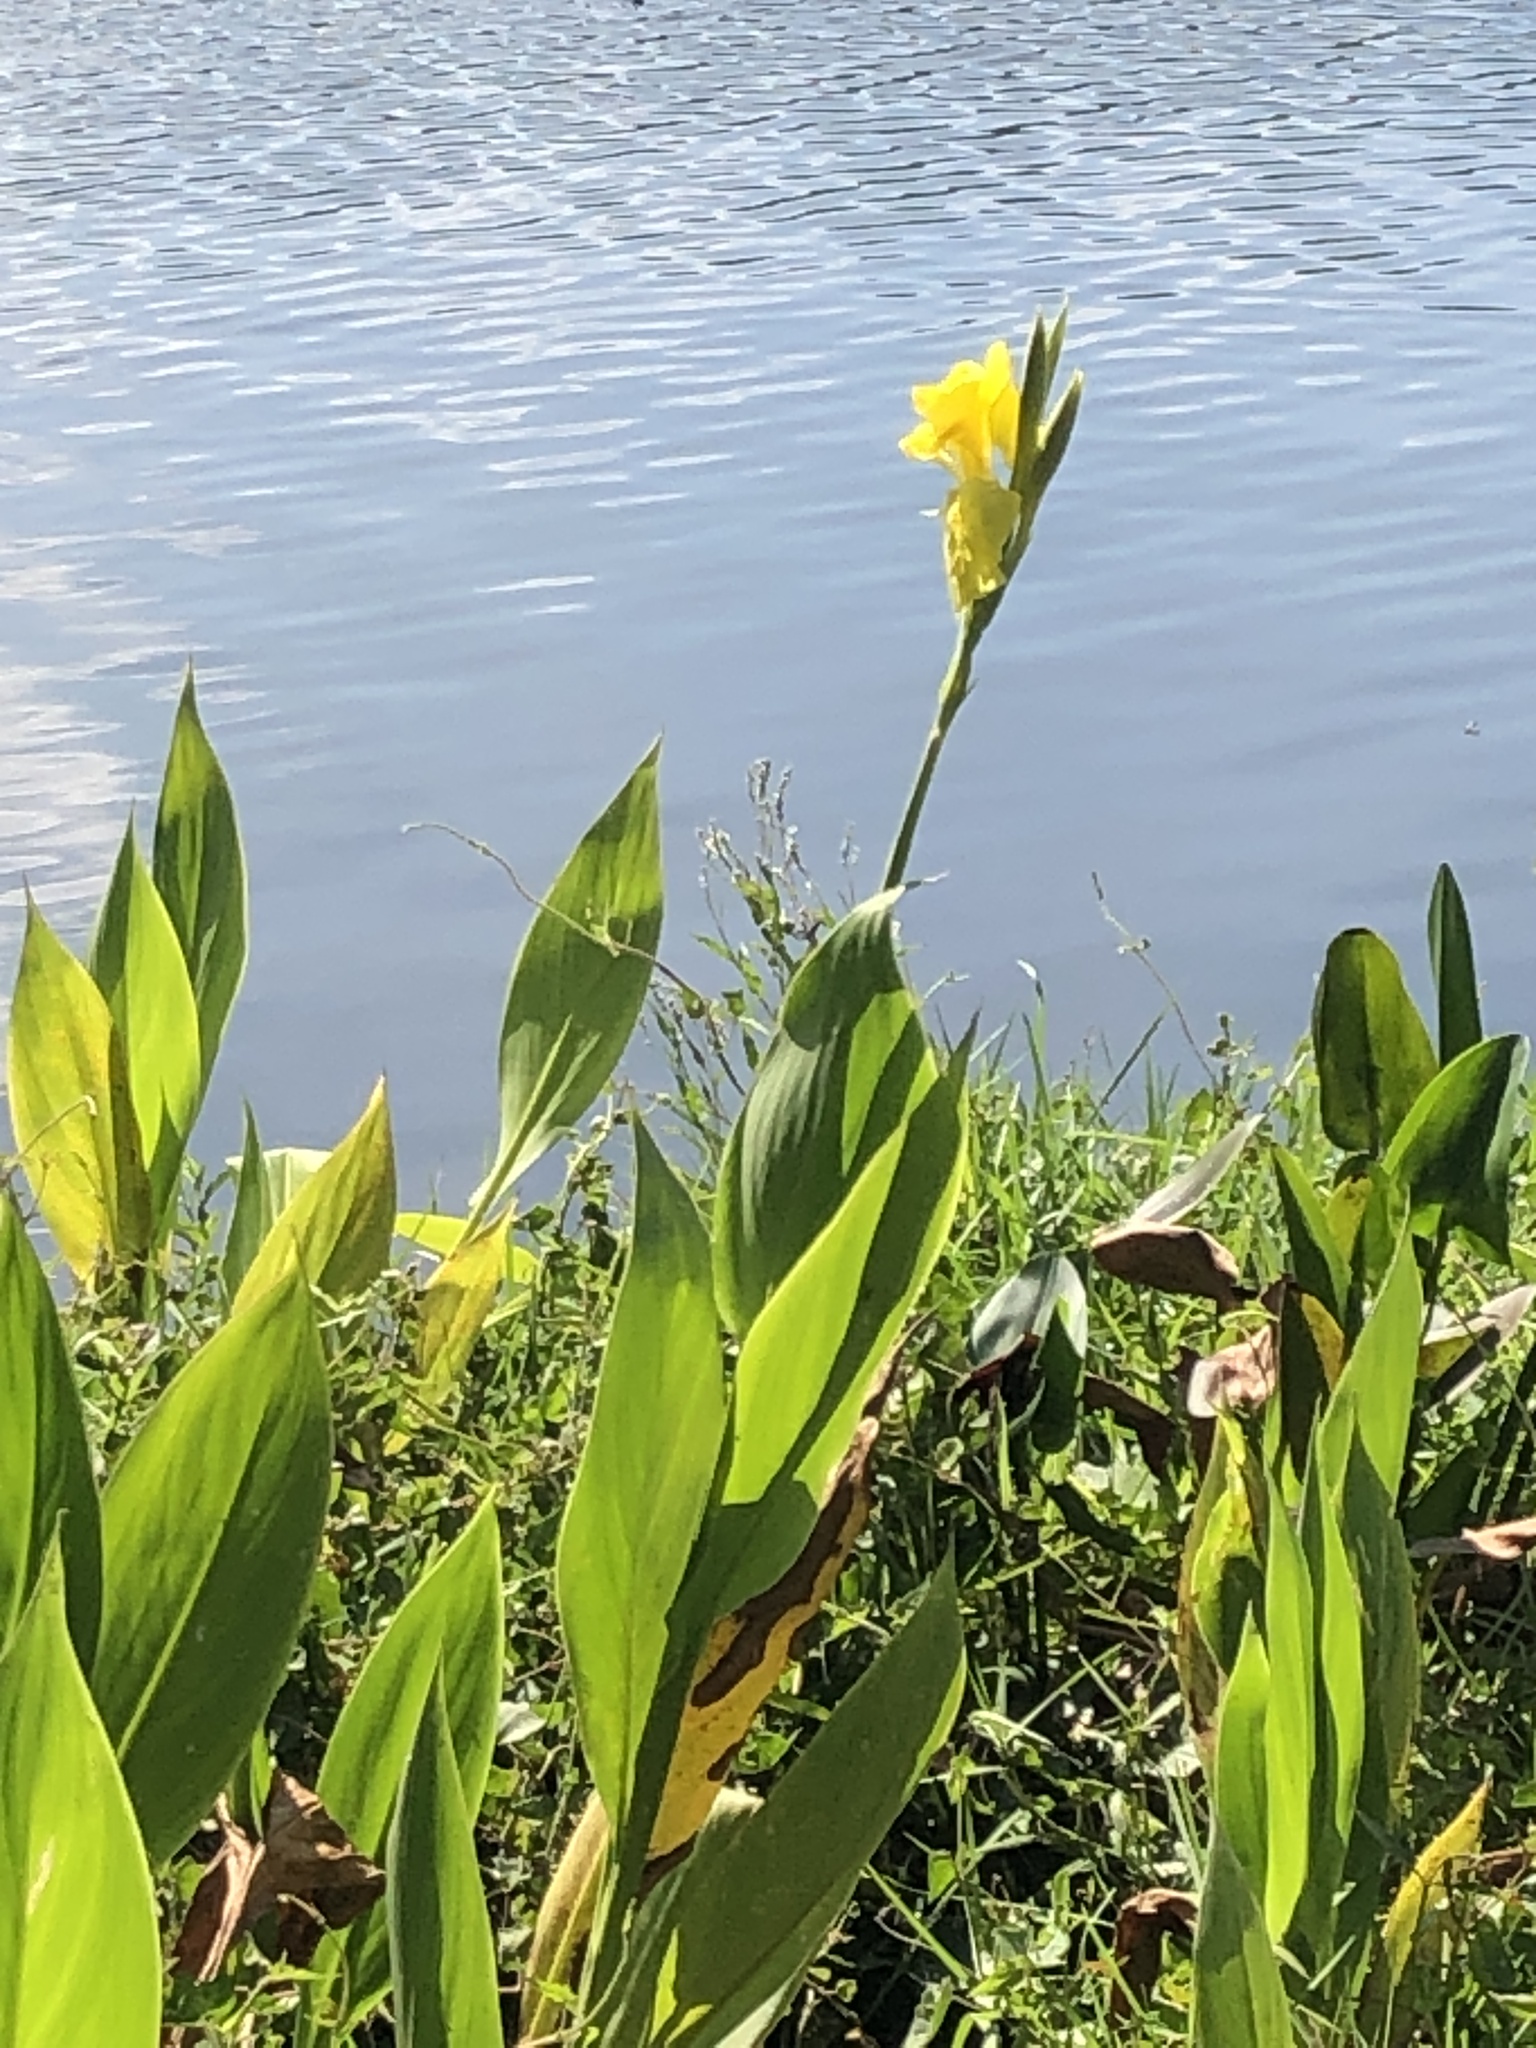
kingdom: Plantae
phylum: Tracheophyta
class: Liliopsida
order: Zingiberales
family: Cannaceae
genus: Canna
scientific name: Canna flaccida
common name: Bandana-of-the-everglades
